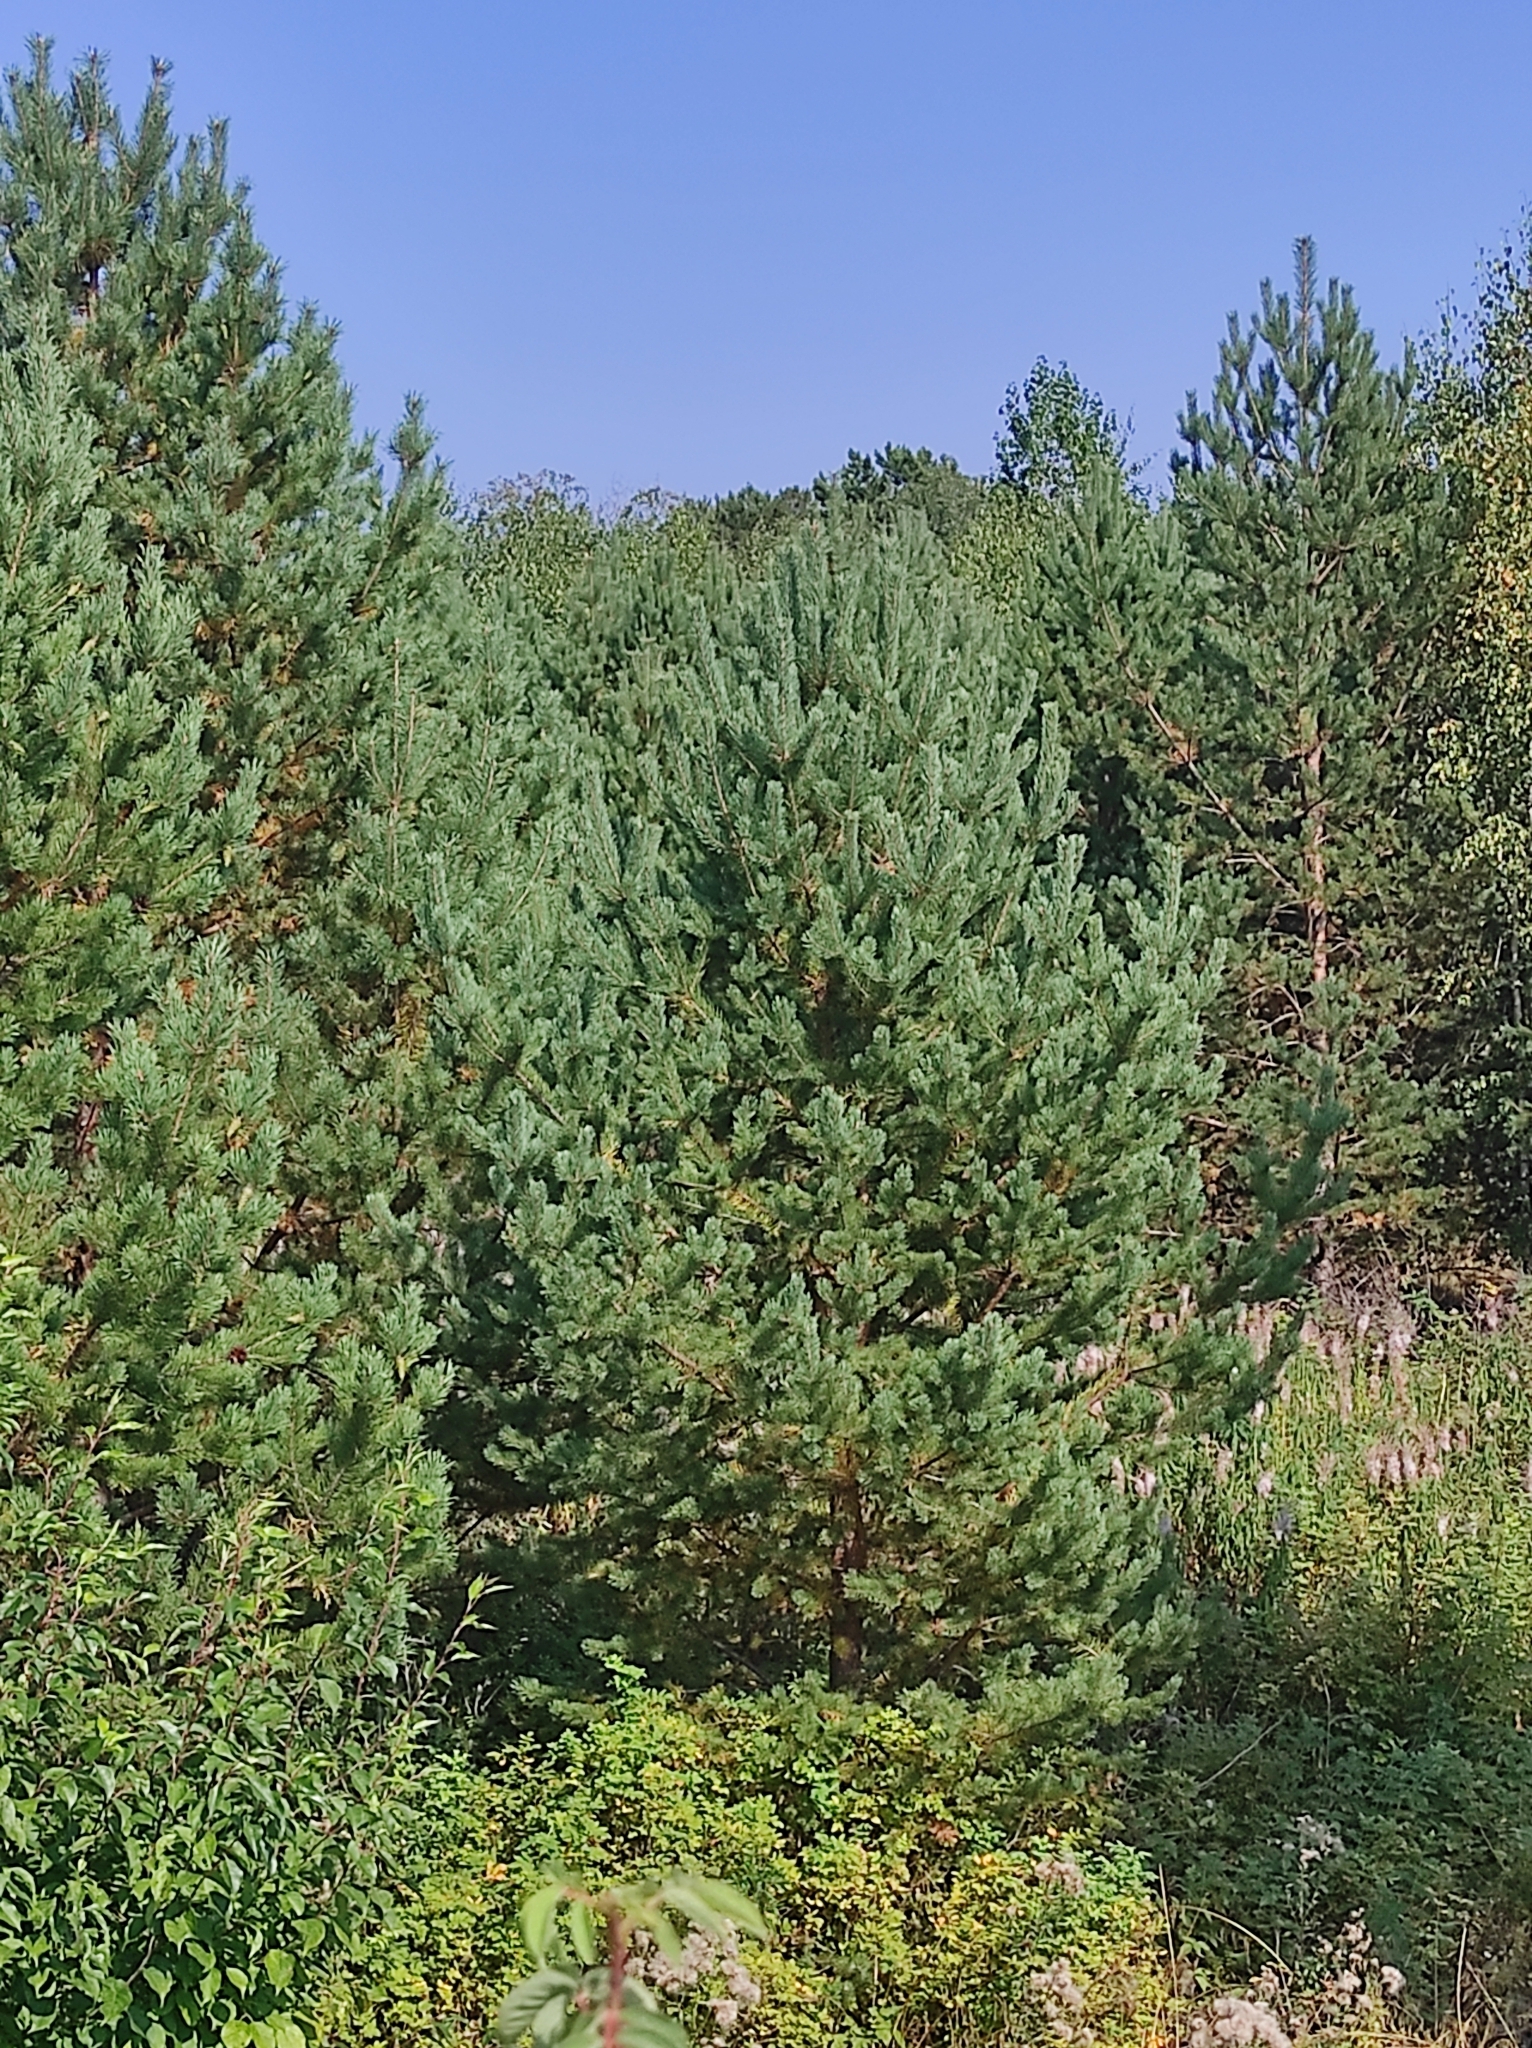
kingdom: Plantae
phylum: Tracheophyta
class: Pinopsida
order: Pinales
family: Pinaceae
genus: Pinus
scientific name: Pinus sylvestris
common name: Scots pine
